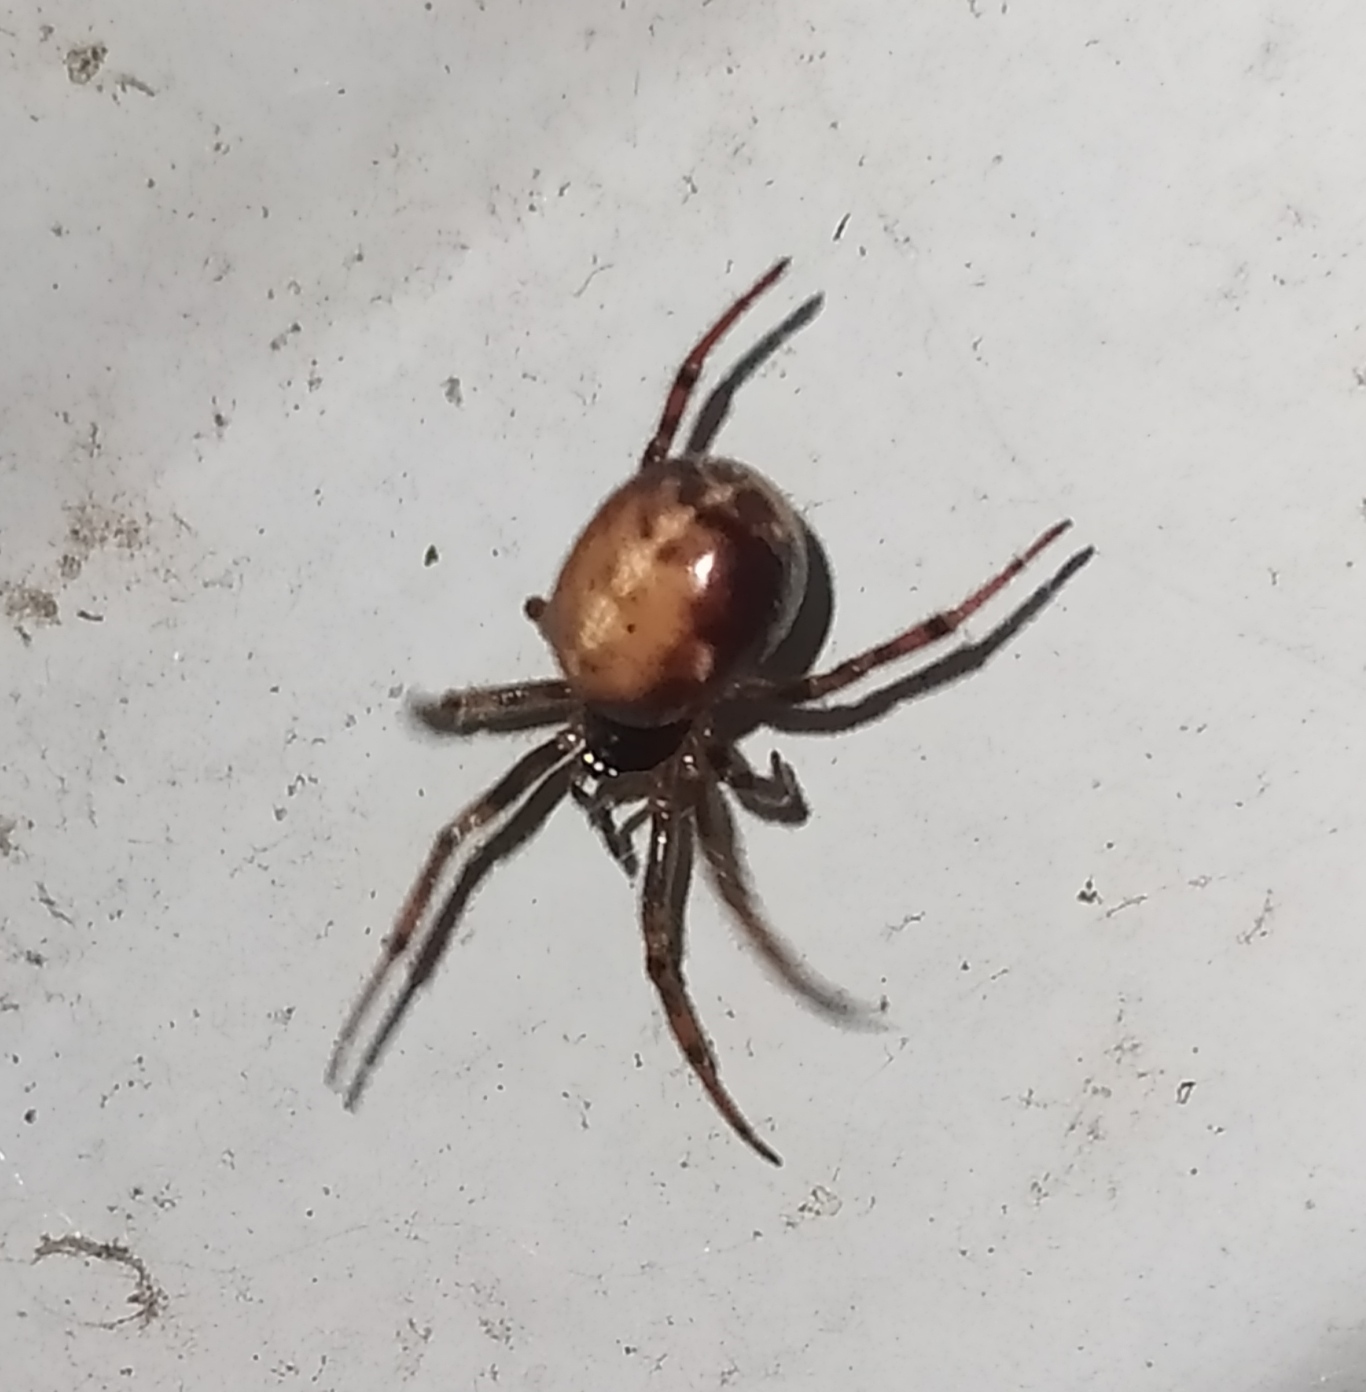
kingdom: Animalia
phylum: Arthropoda
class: Arachnida
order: Araneae
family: Theridiidae
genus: Steatoda
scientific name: Steatoda bipunctata
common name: False widow
